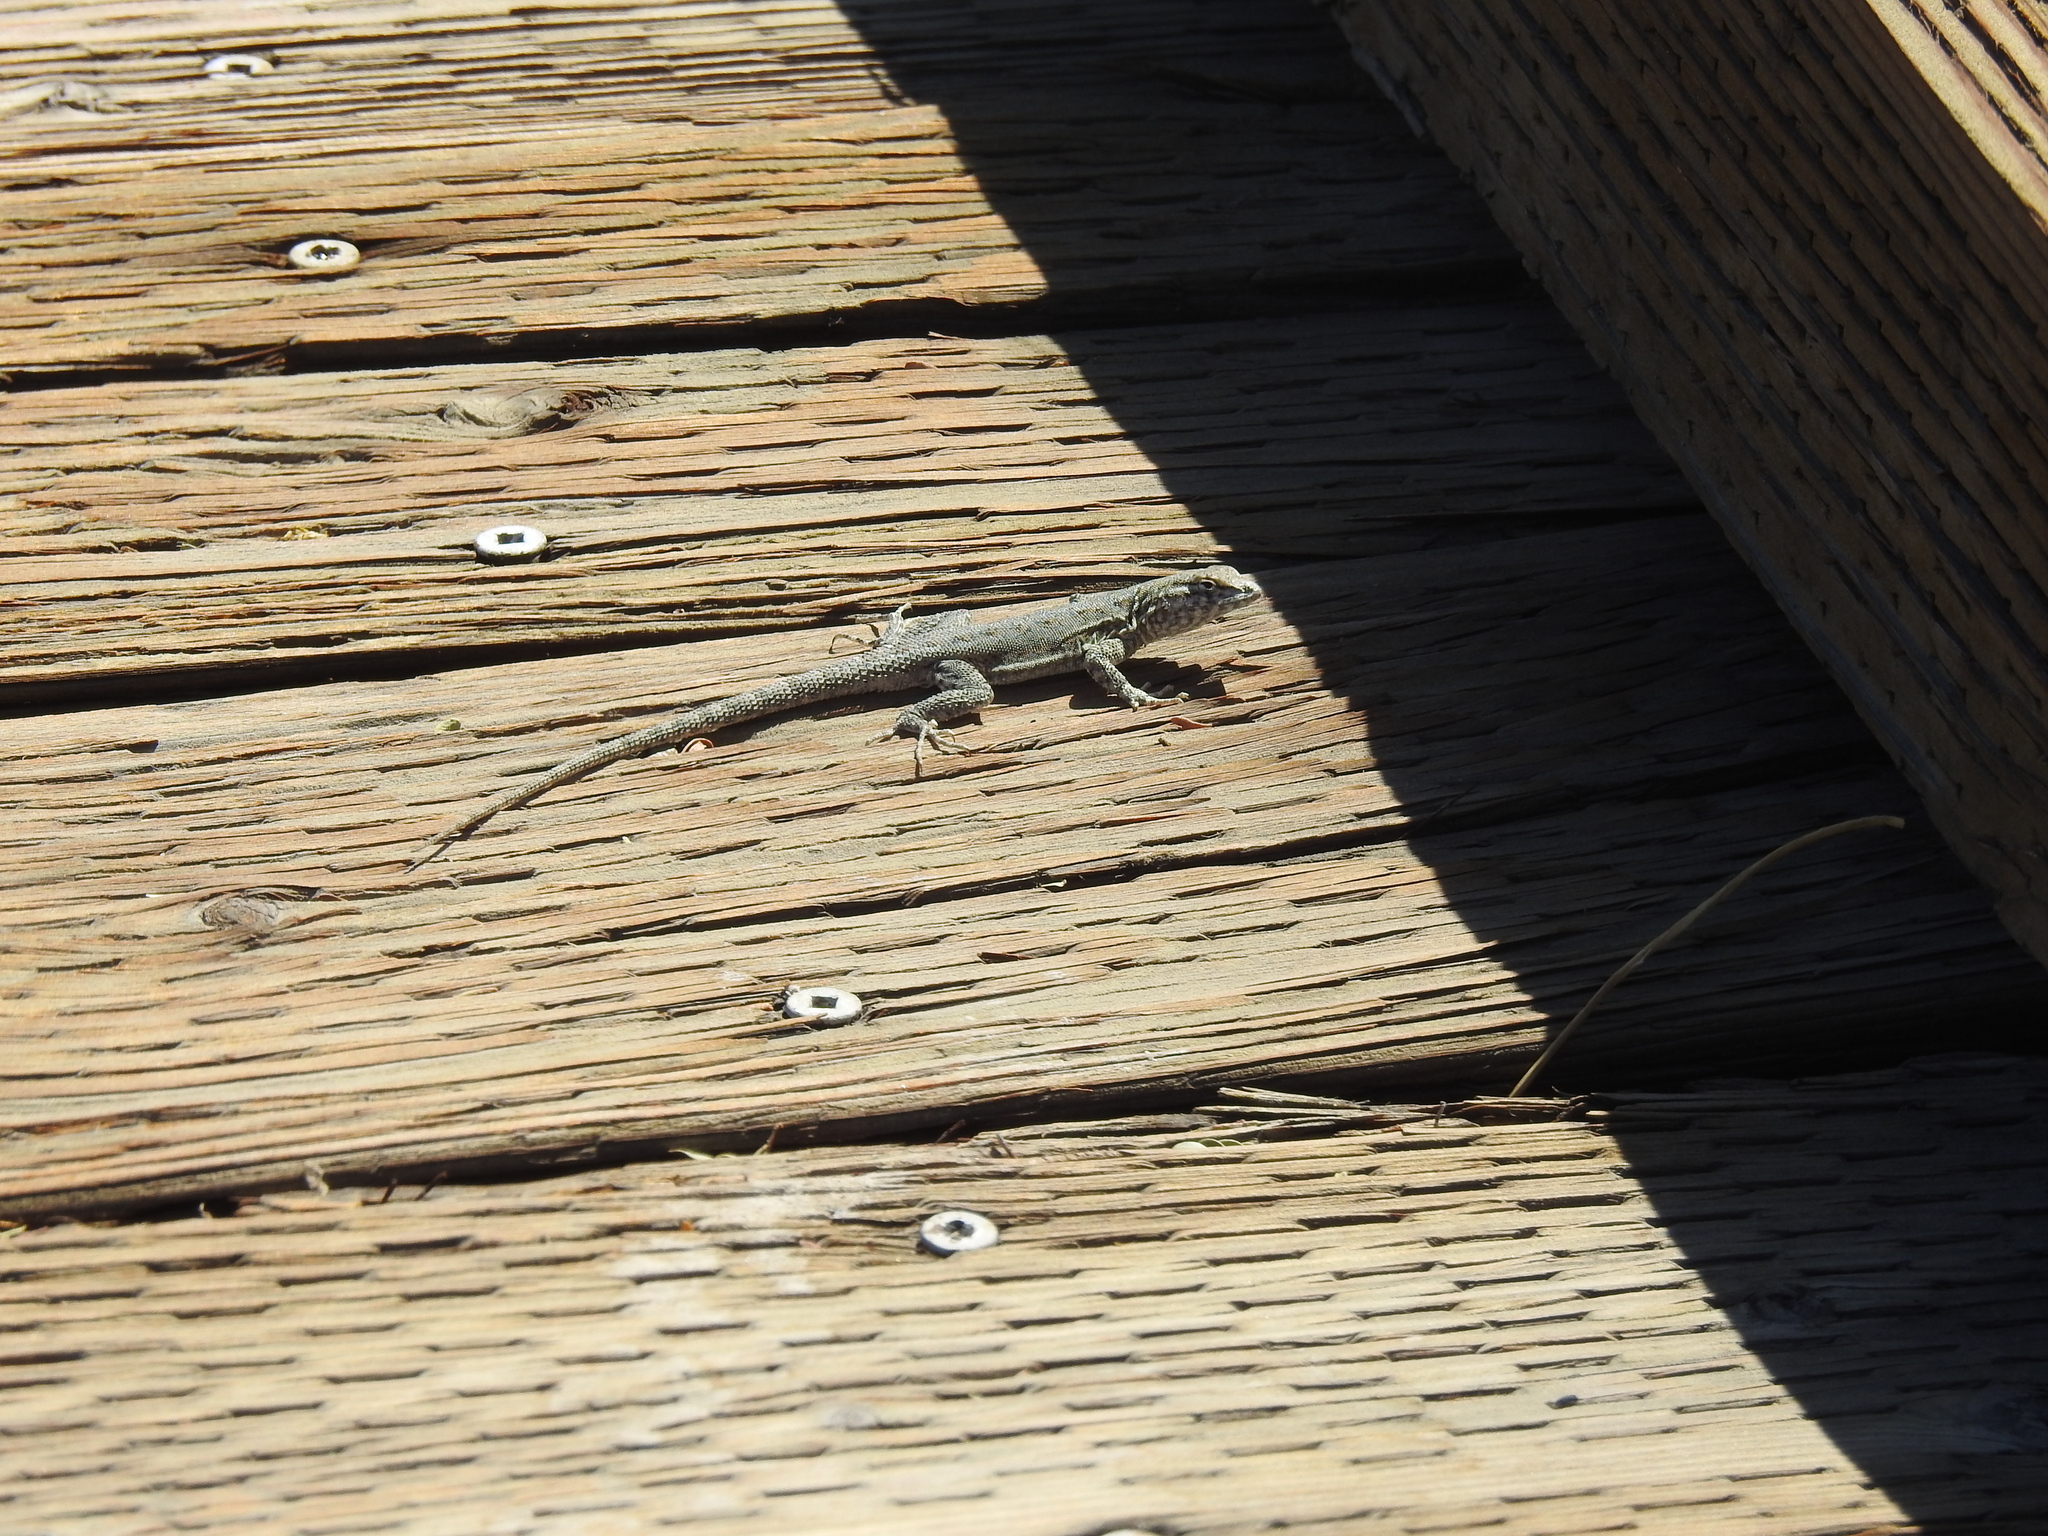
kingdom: Animalia
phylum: Chordata
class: Squamata
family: Phrynosomatidae
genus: Uta
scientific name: Uta stansburiana
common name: Side-blotched lizard
